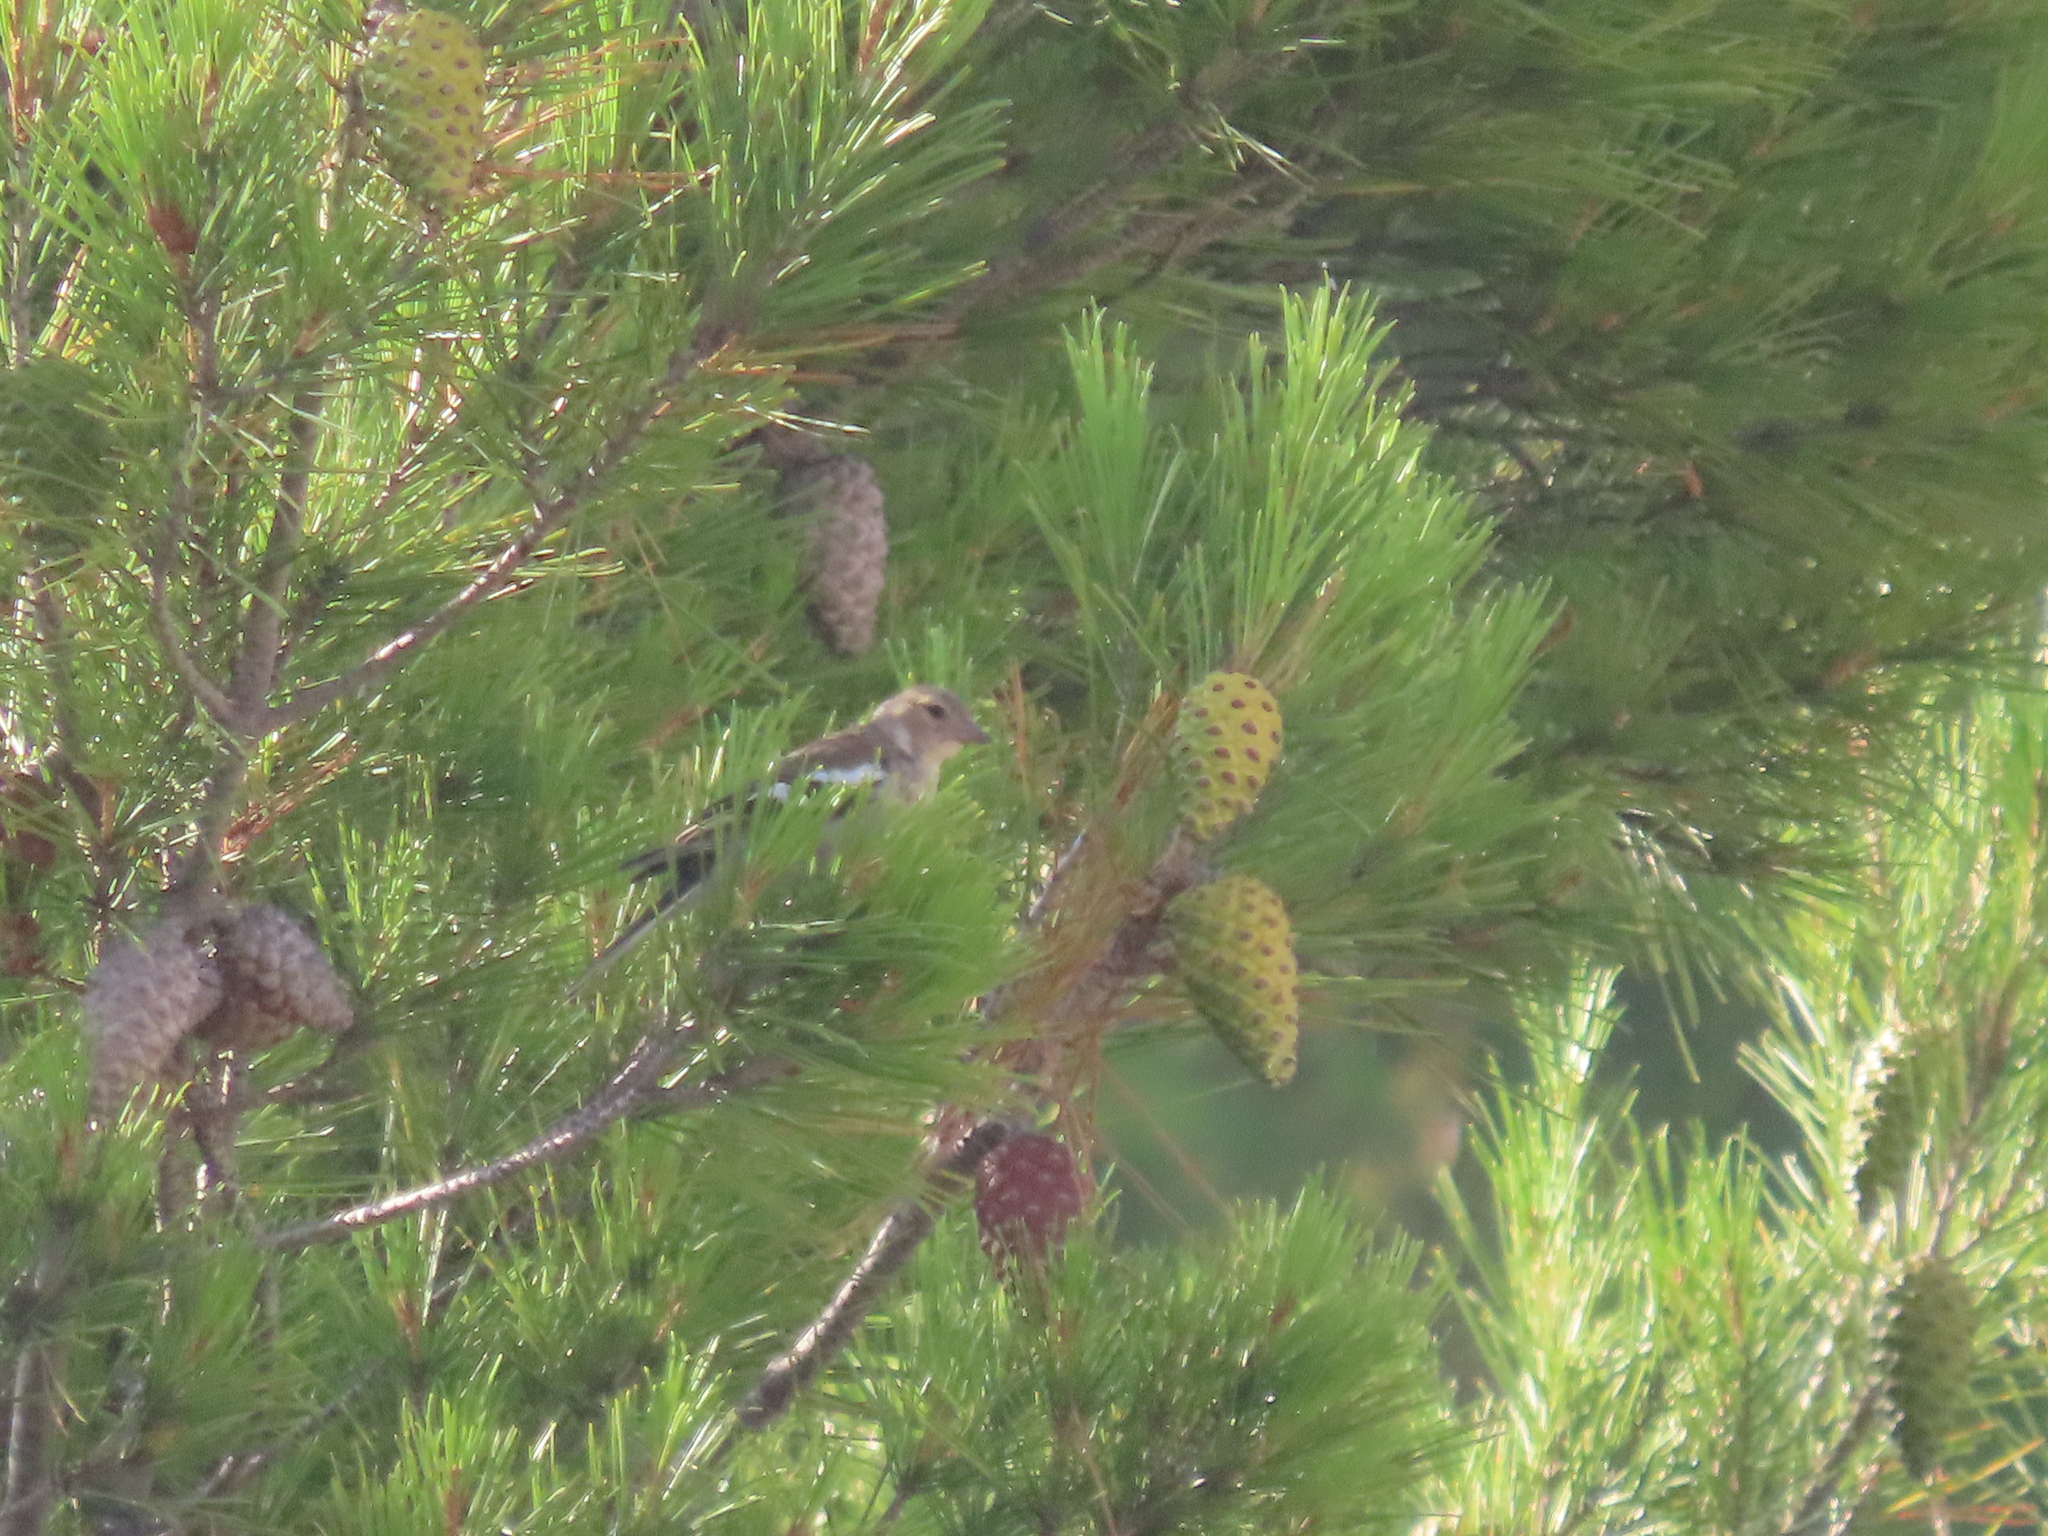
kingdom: Animalia
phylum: Chordata
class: Aves
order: Passeriformes
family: Fringillidae
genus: Fringilla
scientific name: Fringilla coelebs
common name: Common chaffinch
